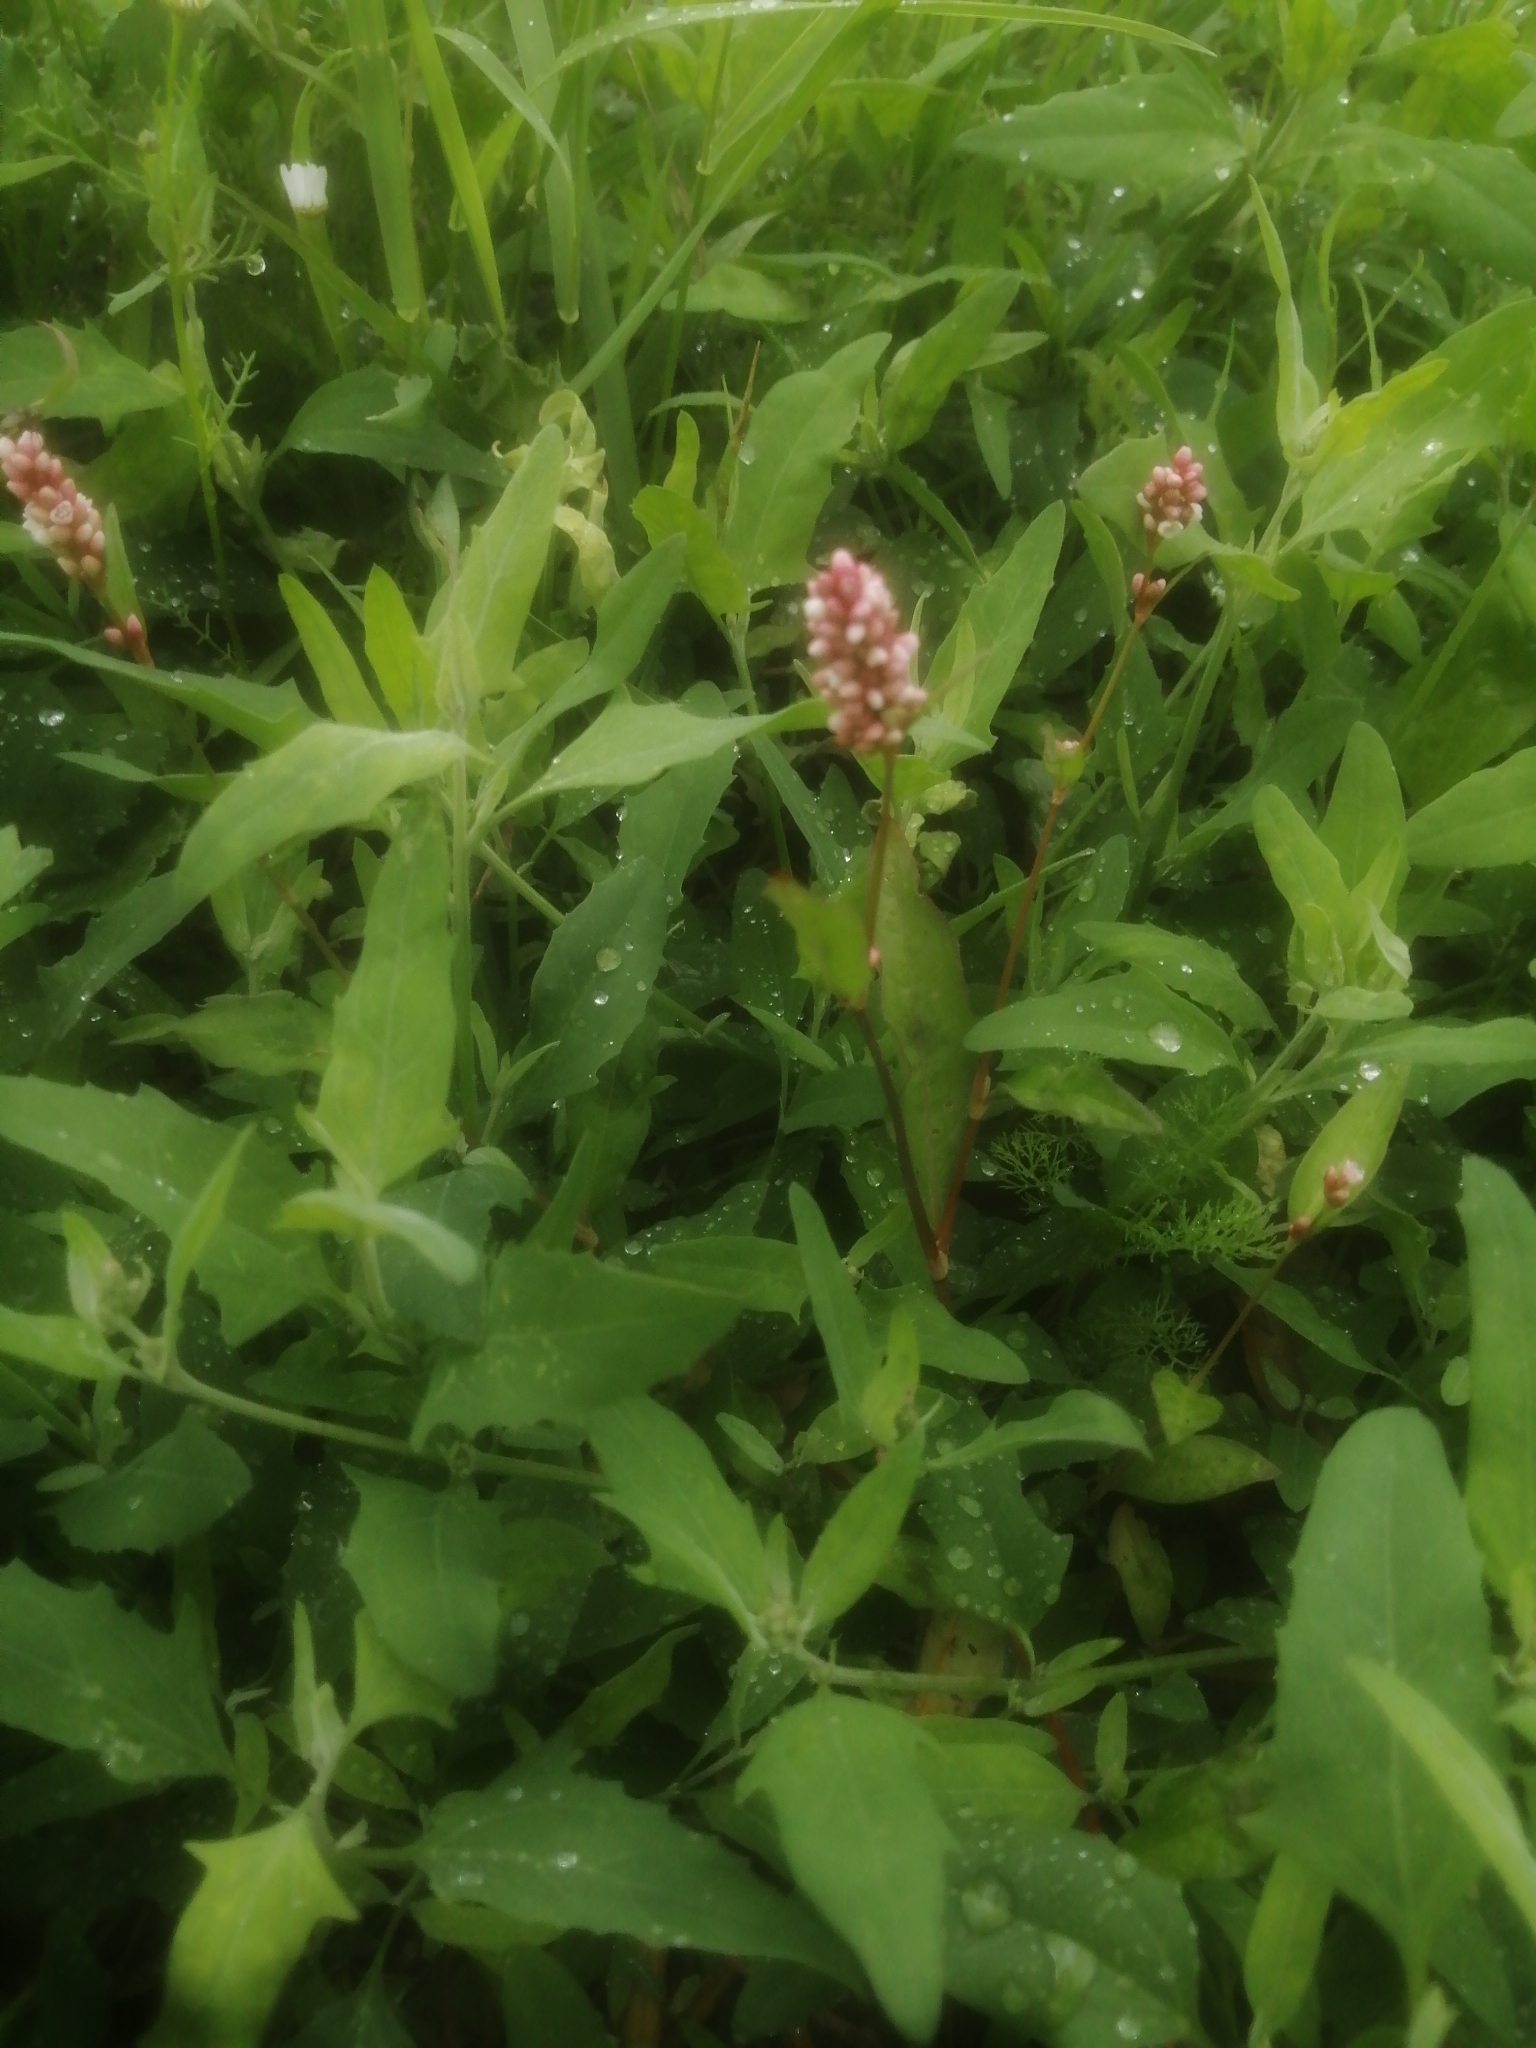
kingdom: Plantae
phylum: Tracheophyta
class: Magnoliopsida
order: Caryophyllales
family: Polygonaceae
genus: Persicaria
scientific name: Persicaria maculosa
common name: Redshank
